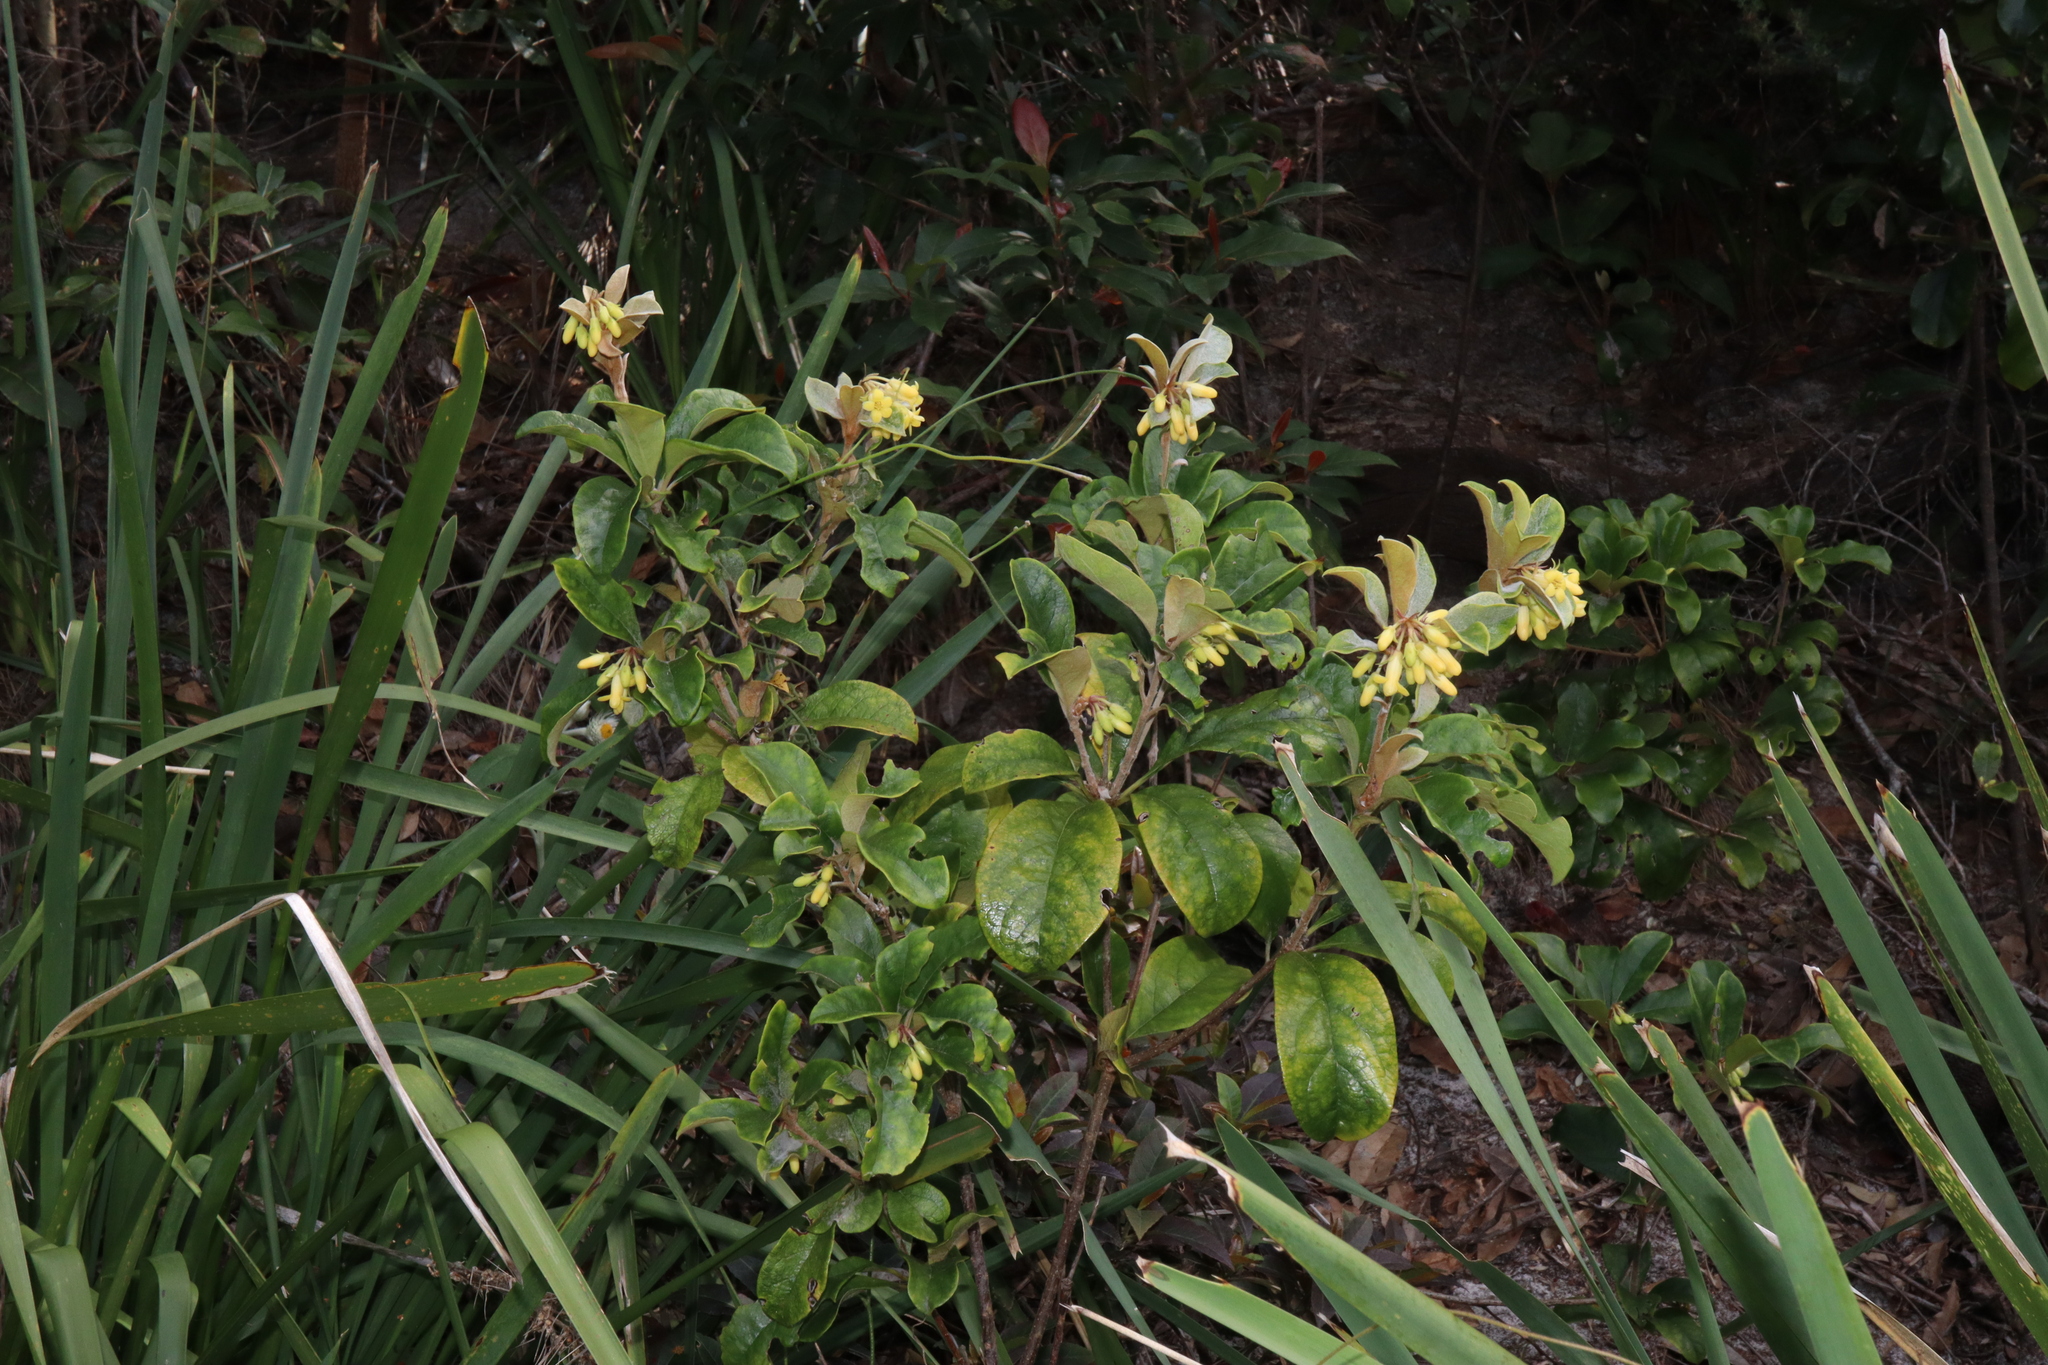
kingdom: Plantae
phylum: Tracheophyta
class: Magnoliopsida
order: Apiales
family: Pittosporaceae
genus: Pittosporum
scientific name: Pittosporum revolutum
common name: Brisbane-laurel
